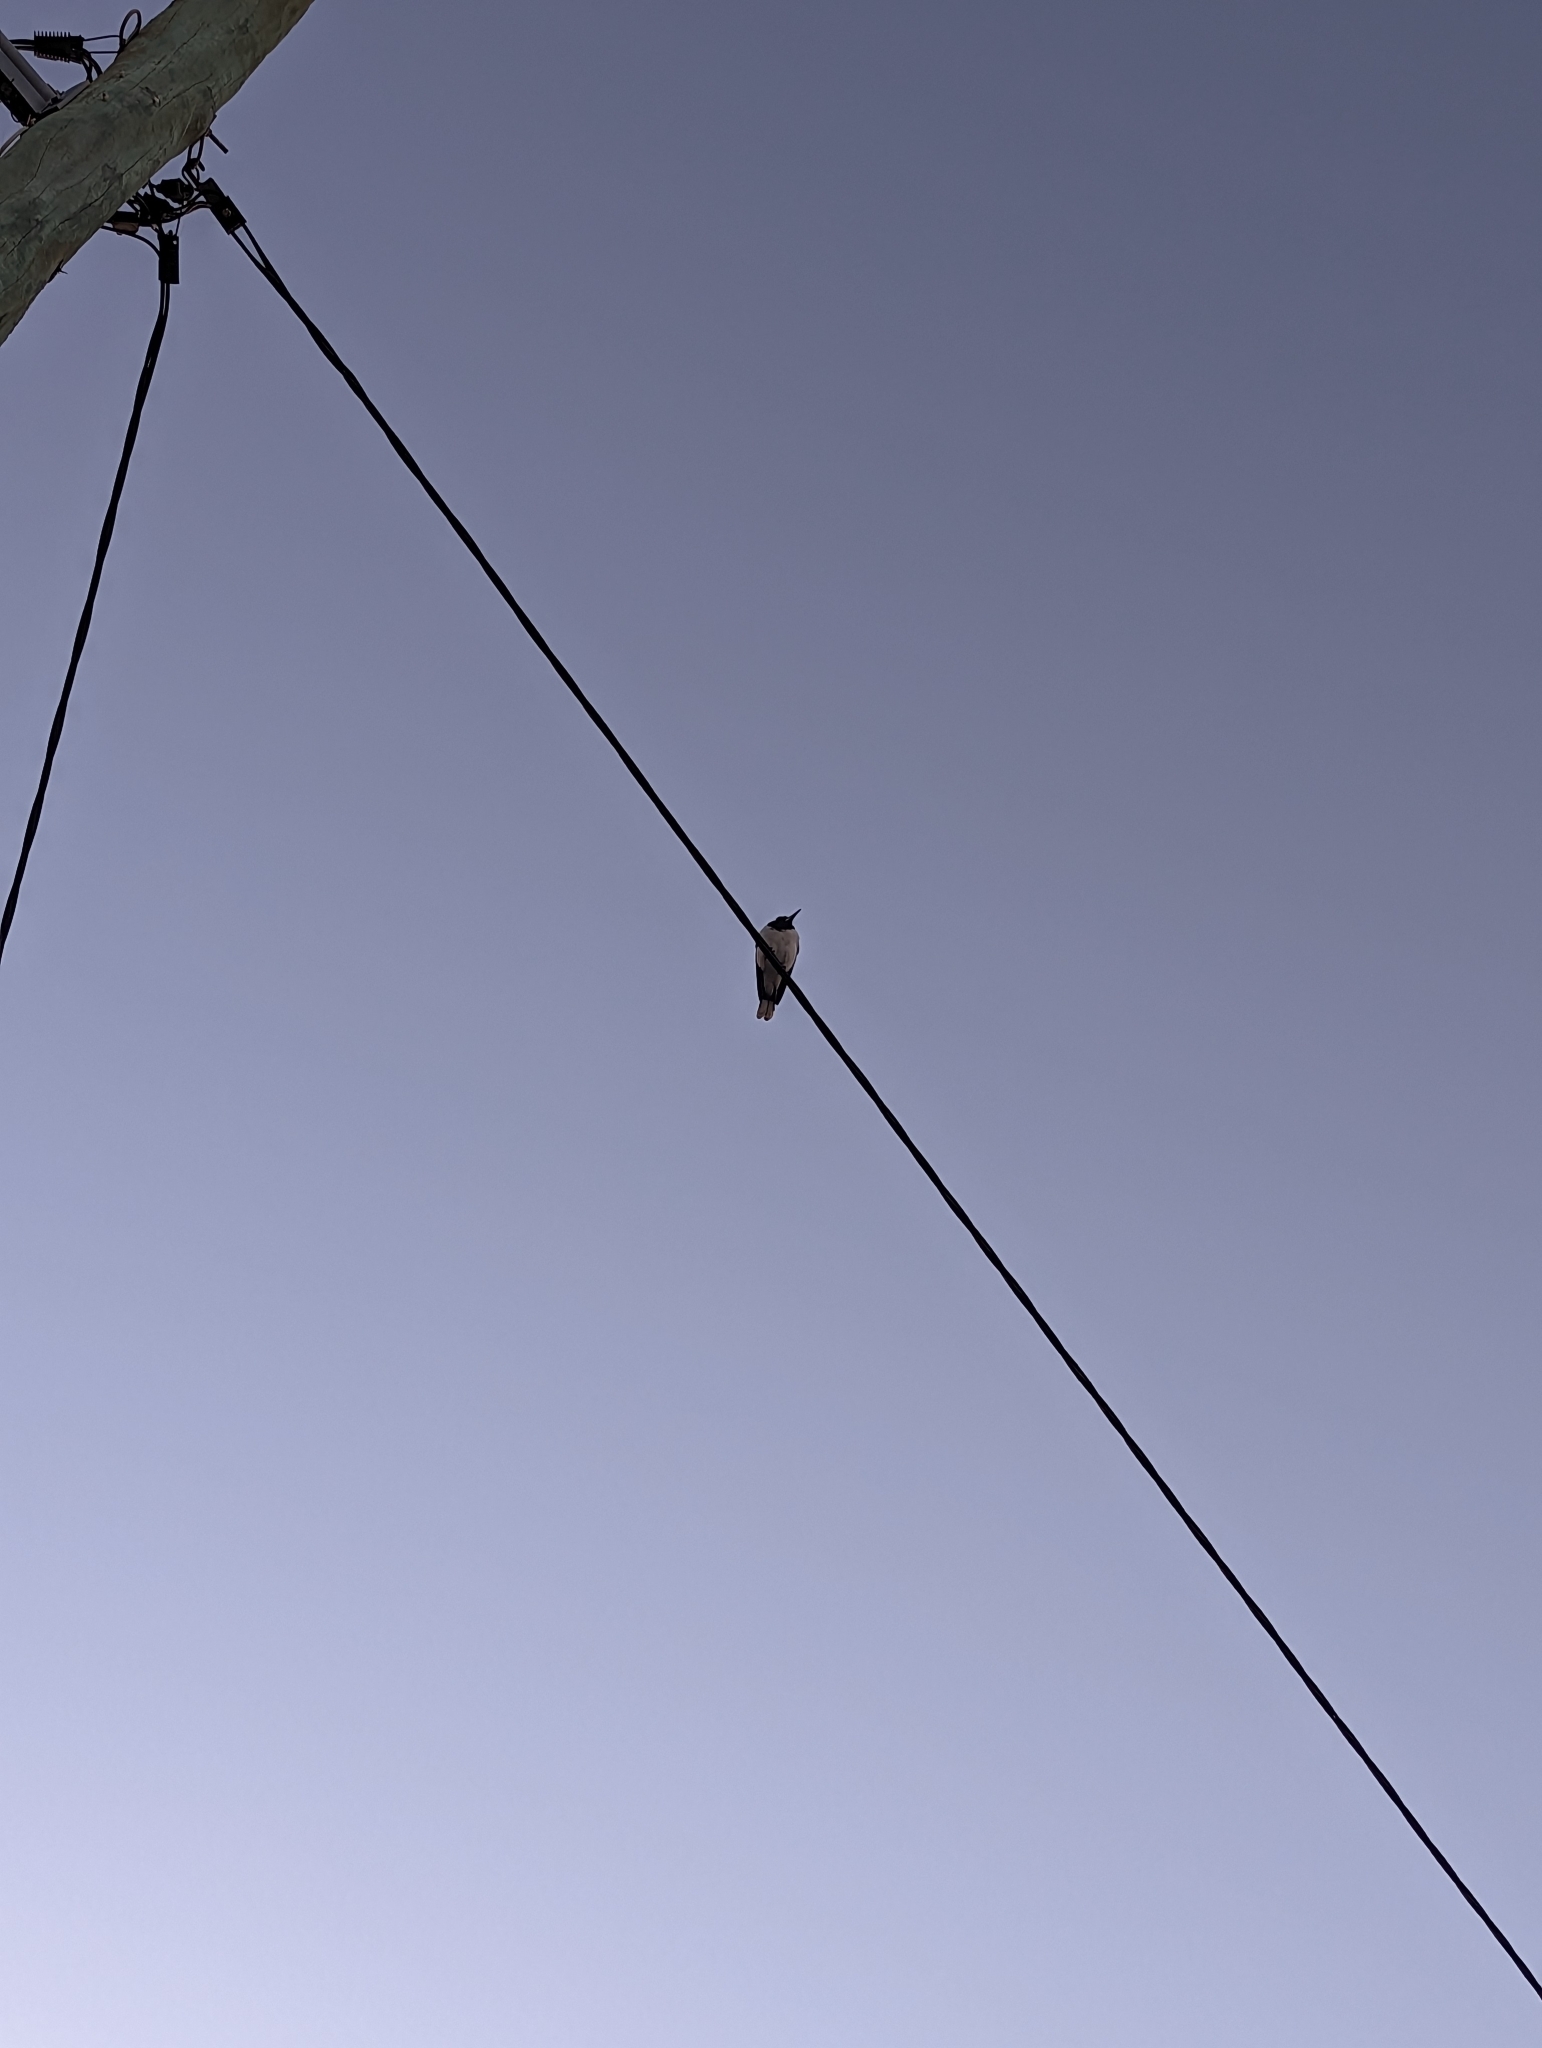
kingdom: Animalia
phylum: Chordata
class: Aves
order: Passeriformes
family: Cracticidae
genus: Cracticus
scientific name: Cracticus nigrogularis
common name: Pied butcherbird
